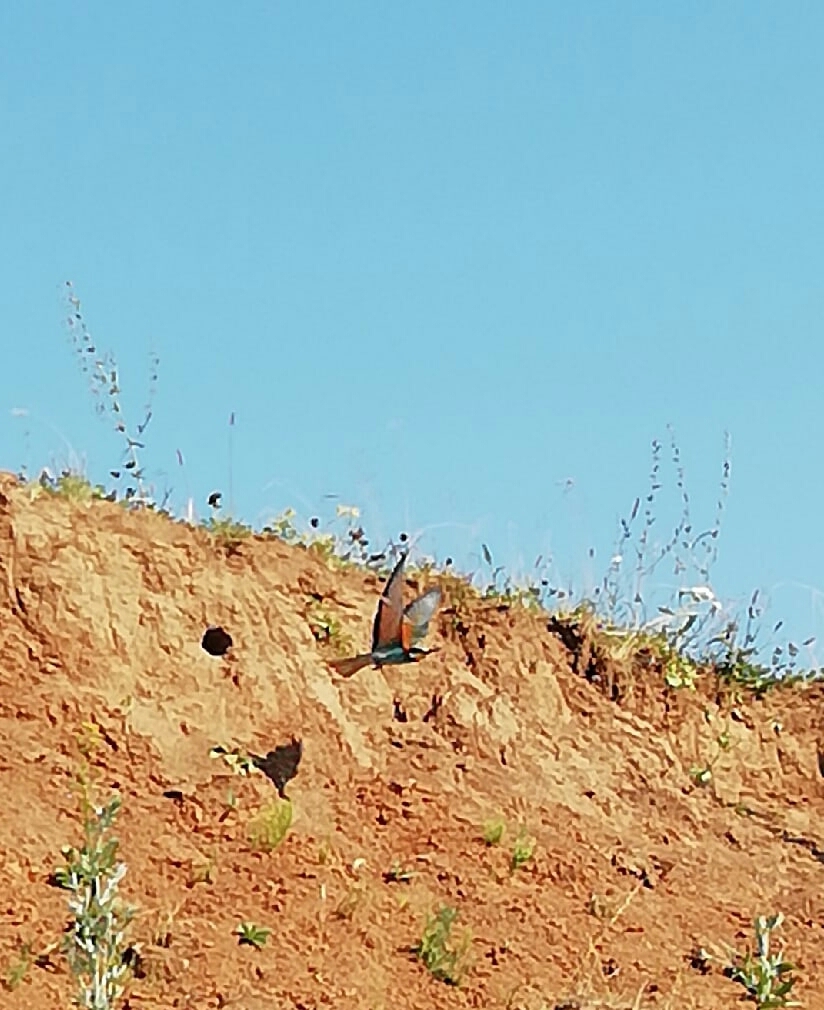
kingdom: Animalia
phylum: Chordata
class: Aves
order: Coraciiformes
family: Meropidae
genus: Merops
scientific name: Merops apiaster
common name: European bee-eater
